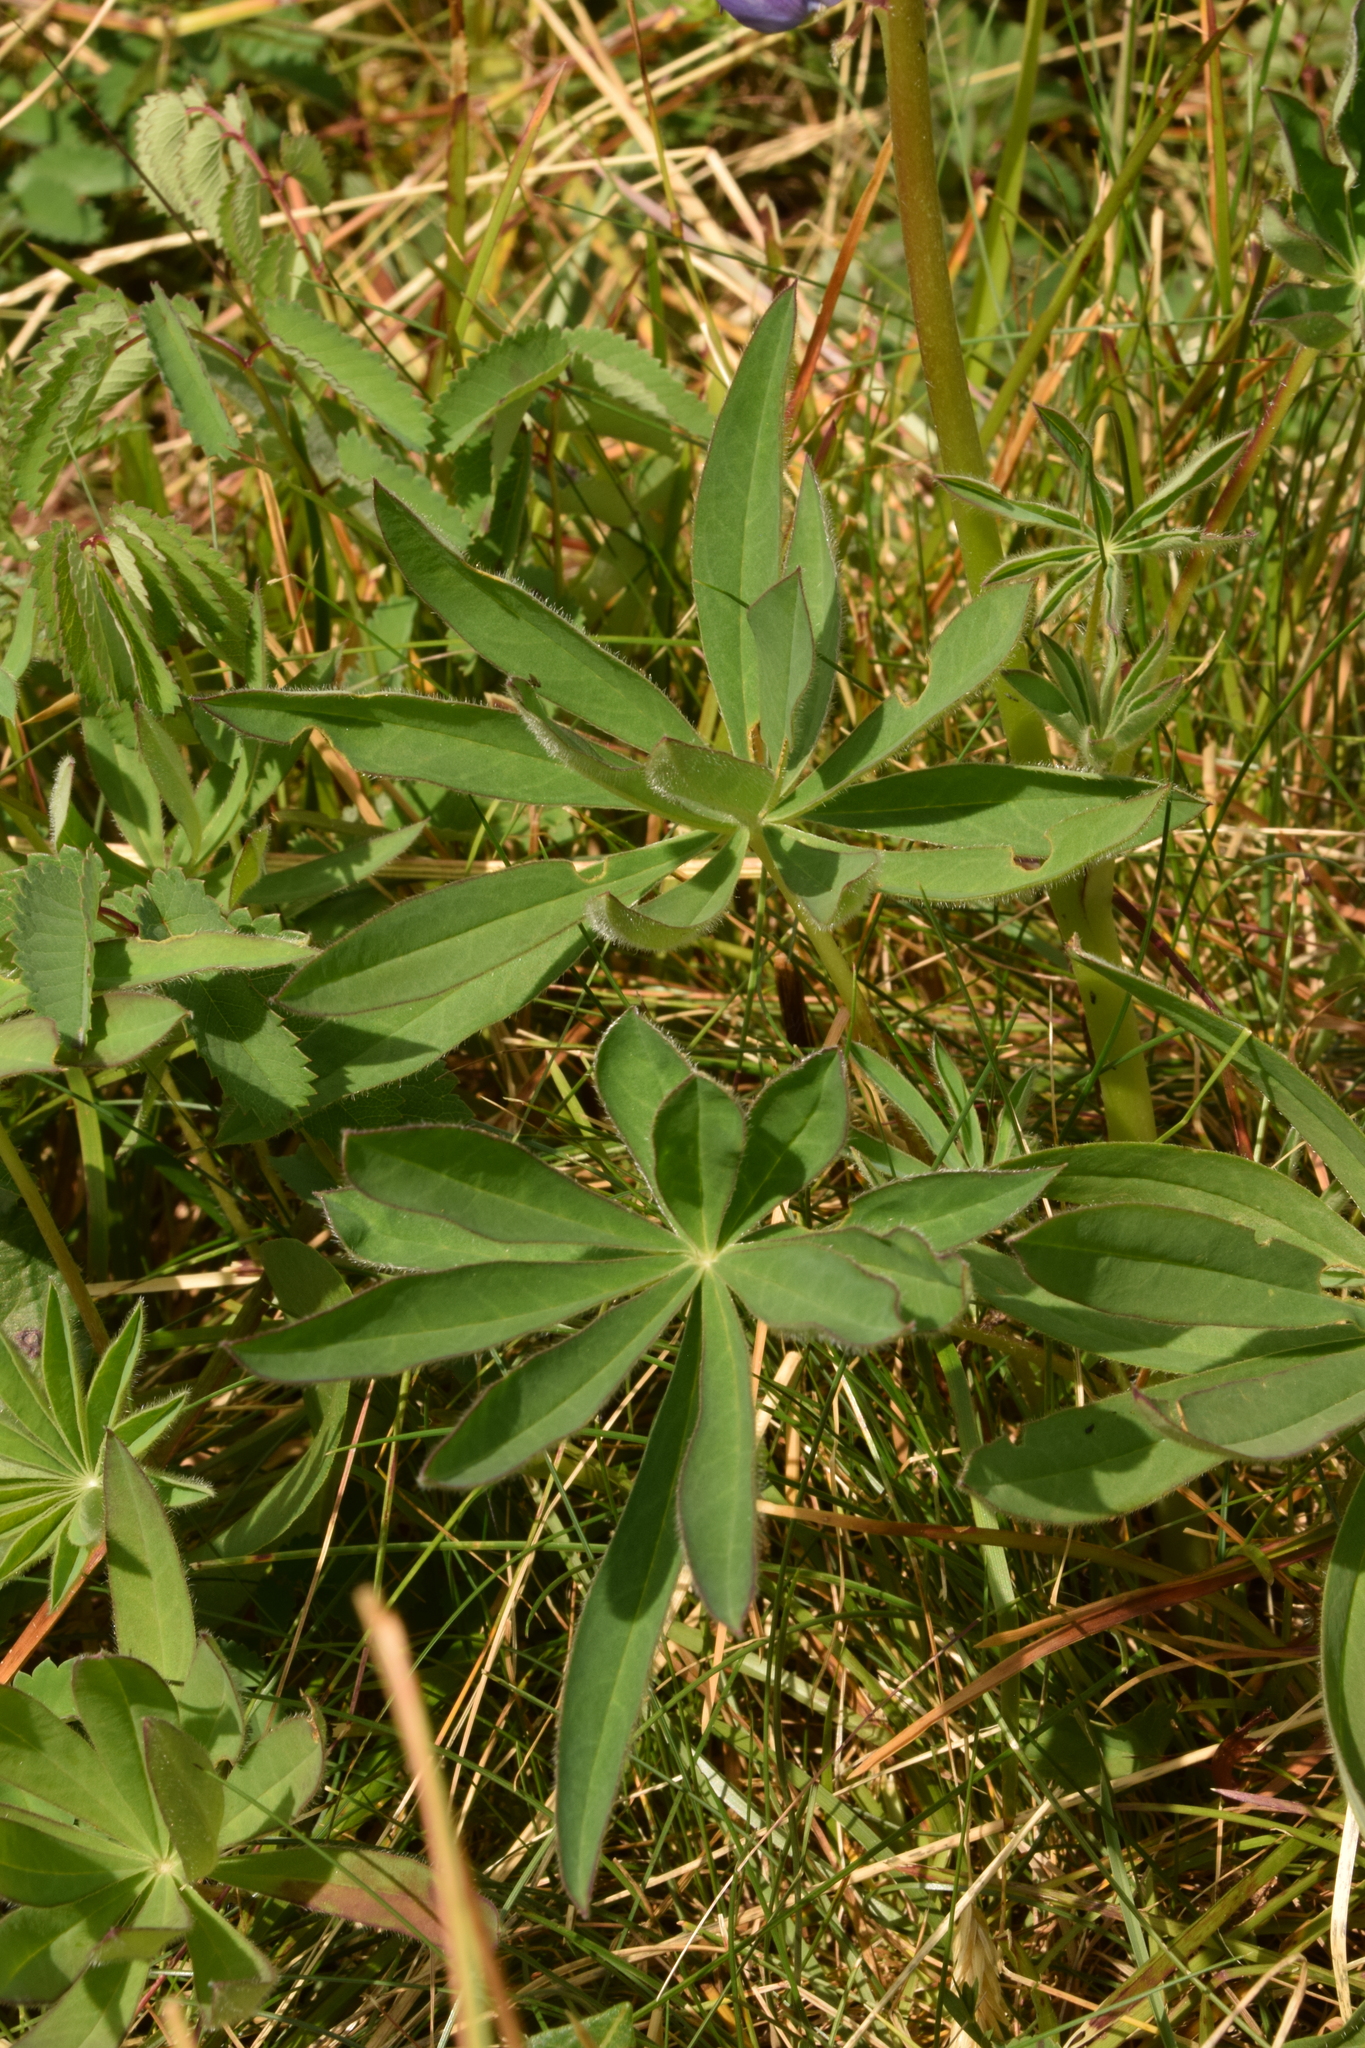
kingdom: Plantae
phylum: Tracheophyta
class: Magnoliopsida
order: Fabales
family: Fabaceae
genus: Lupinus
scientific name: Lupinus polyphyllus
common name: Garden lupin
